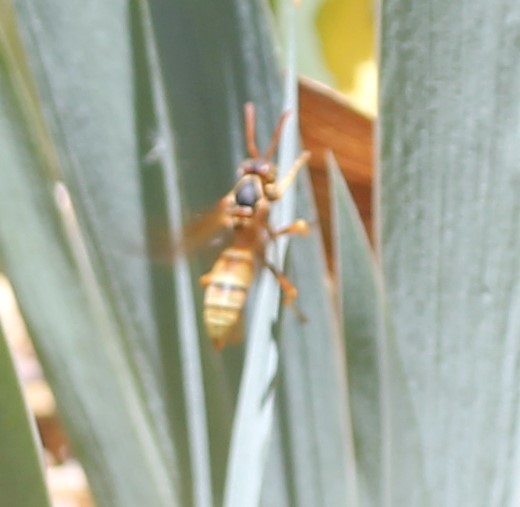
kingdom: Animalia
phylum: Arthropoda
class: Insecta
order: Hymenoptera
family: Eumenidae
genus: Polistes
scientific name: Polistes aurifer
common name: Paper wasp
